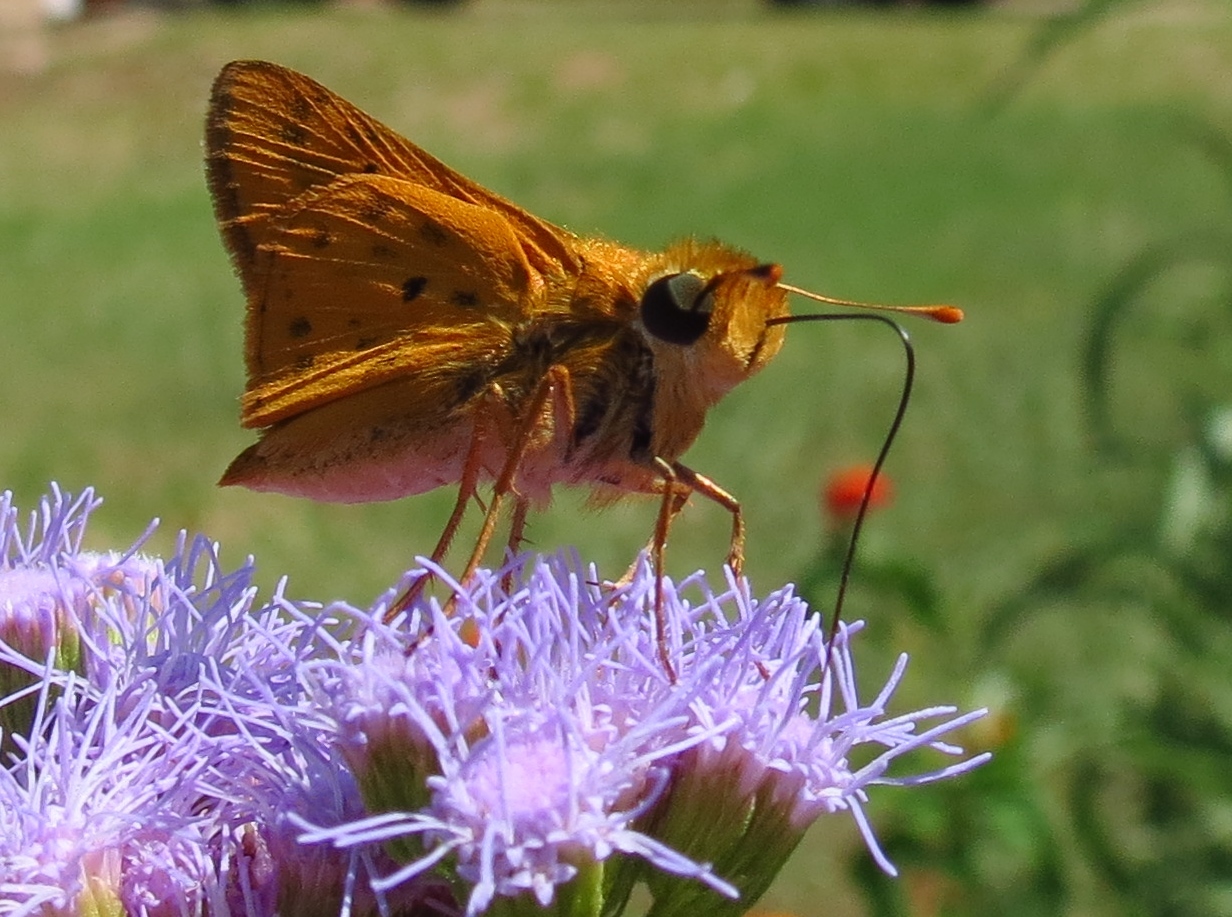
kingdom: Animalia
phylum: Arthropoda
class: Insecta
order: Lepidoptera
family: Hesperiidae
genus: Hylephila
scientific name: Hylephila phyleus
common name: Fiery skipper
